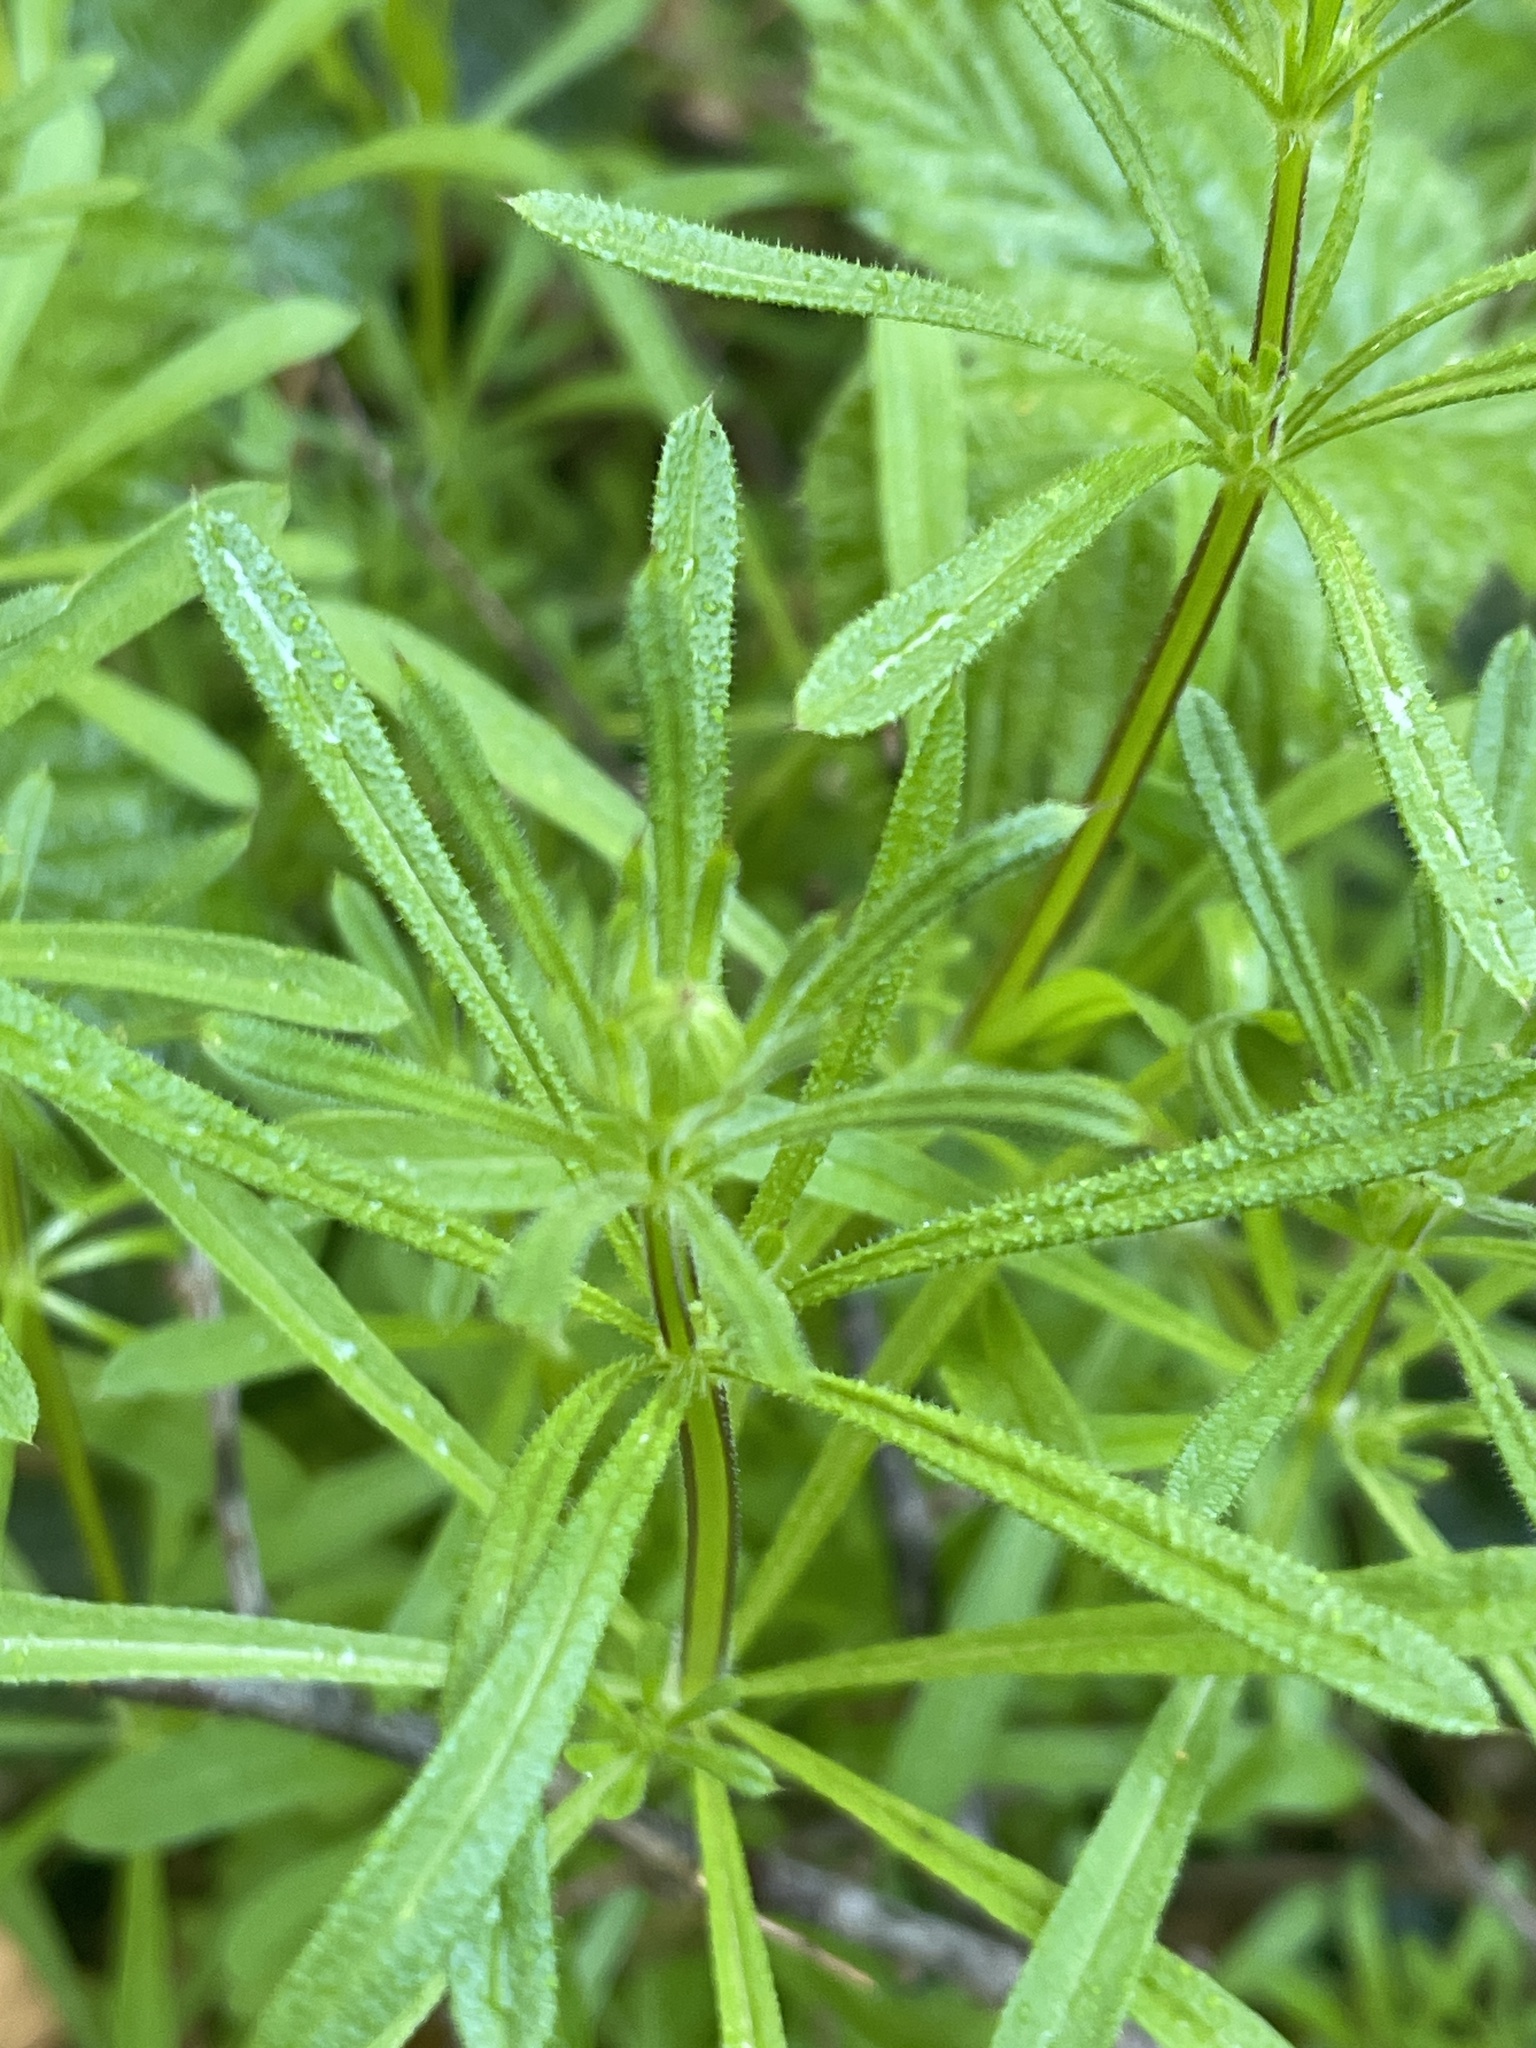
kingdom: Plantae
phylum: Tracheophyta
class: Magnoliopsida
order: Gentianales
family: Rubiaceae
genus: Galium
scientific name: Galium aparine
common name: Cleavers
